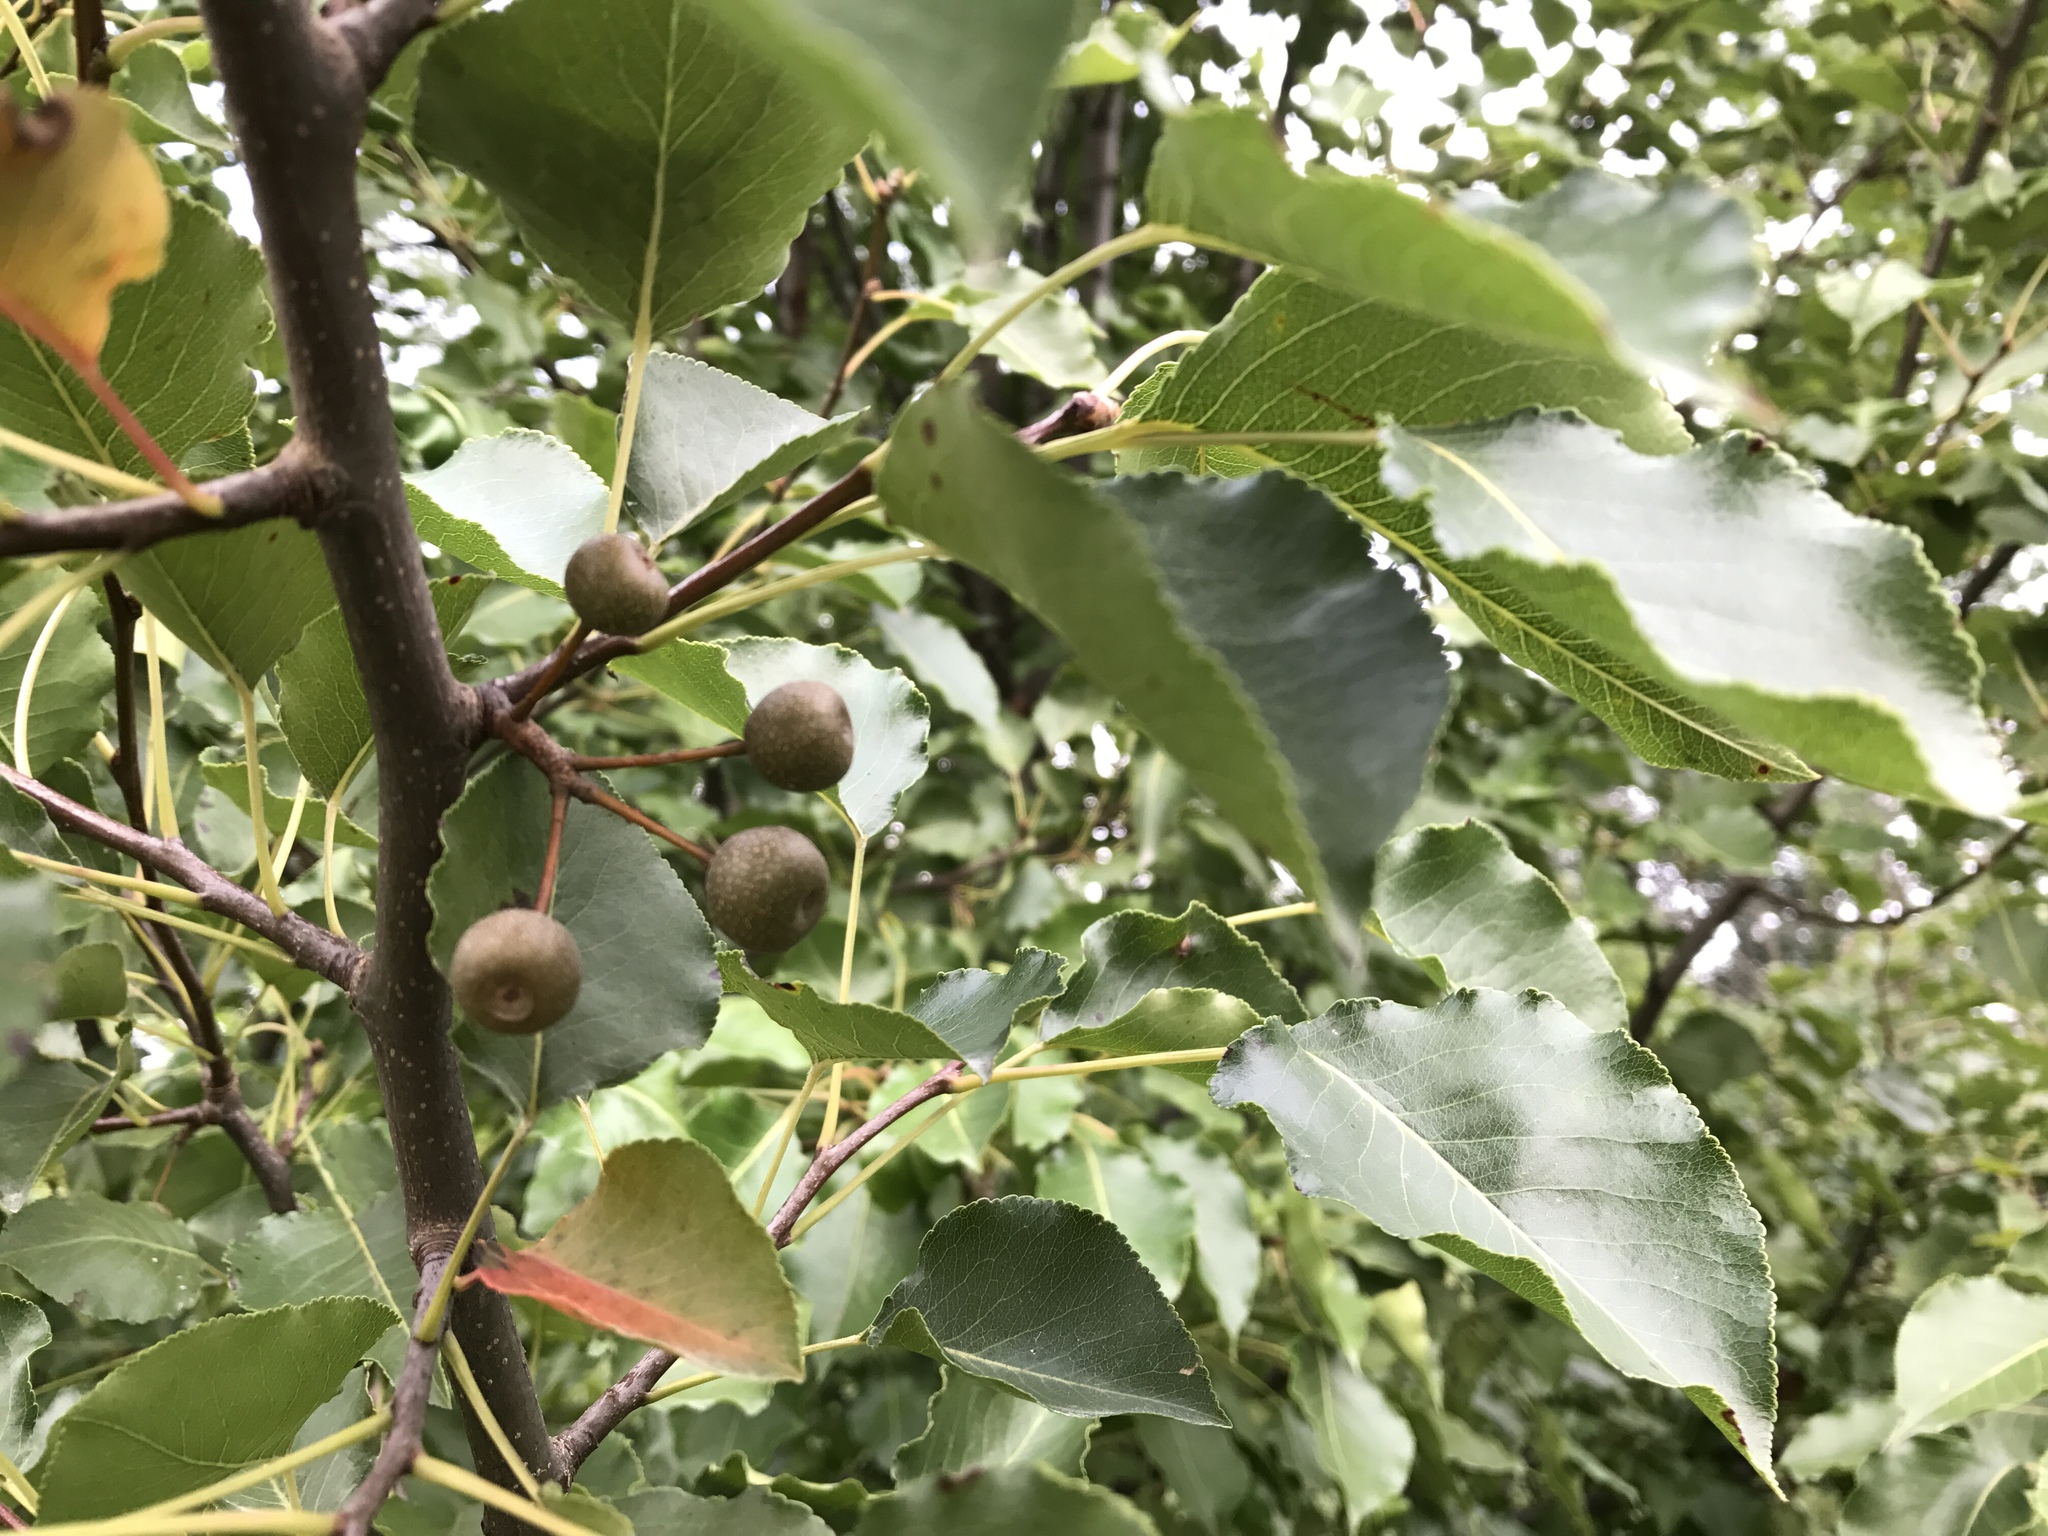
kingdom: Plantae
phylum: Tracheophyta
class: Magnoliopsida
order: Rosales
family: Rosaceae
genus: Pyrus
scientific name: Pyrus calleryana
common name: Callery pear
